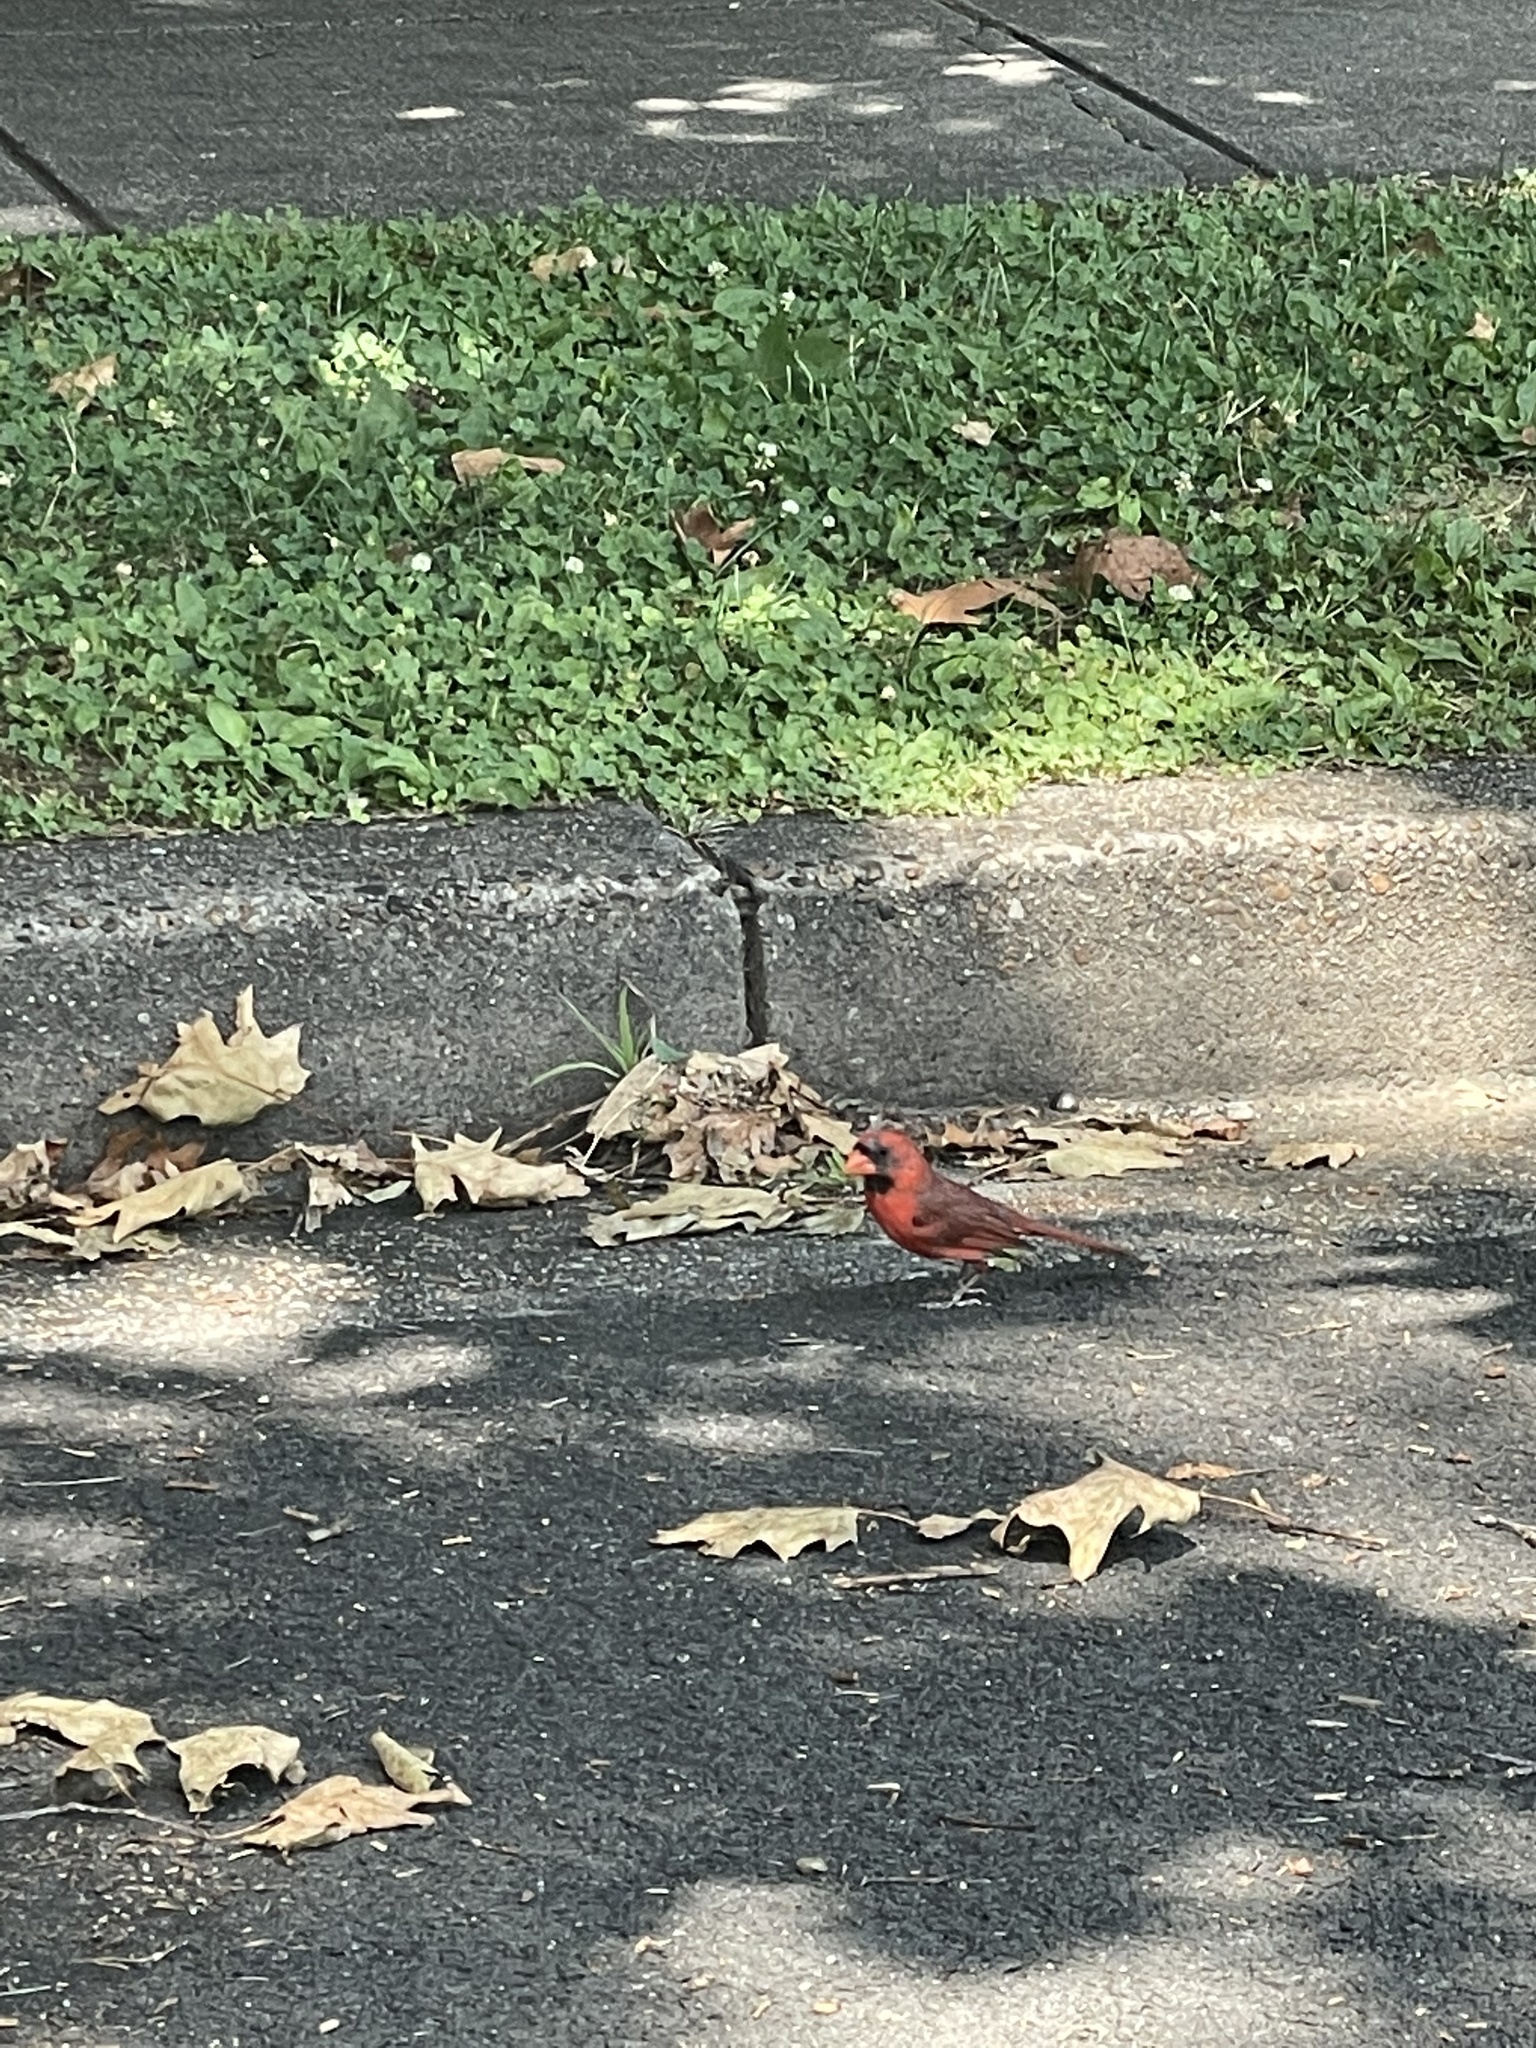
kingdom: Animalia
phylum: Chordata
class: Aves
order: Passeriformes
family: Cardinalidae
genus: Cardinalis
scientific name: Cardinalis cardinalis
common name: Northern cardinal
